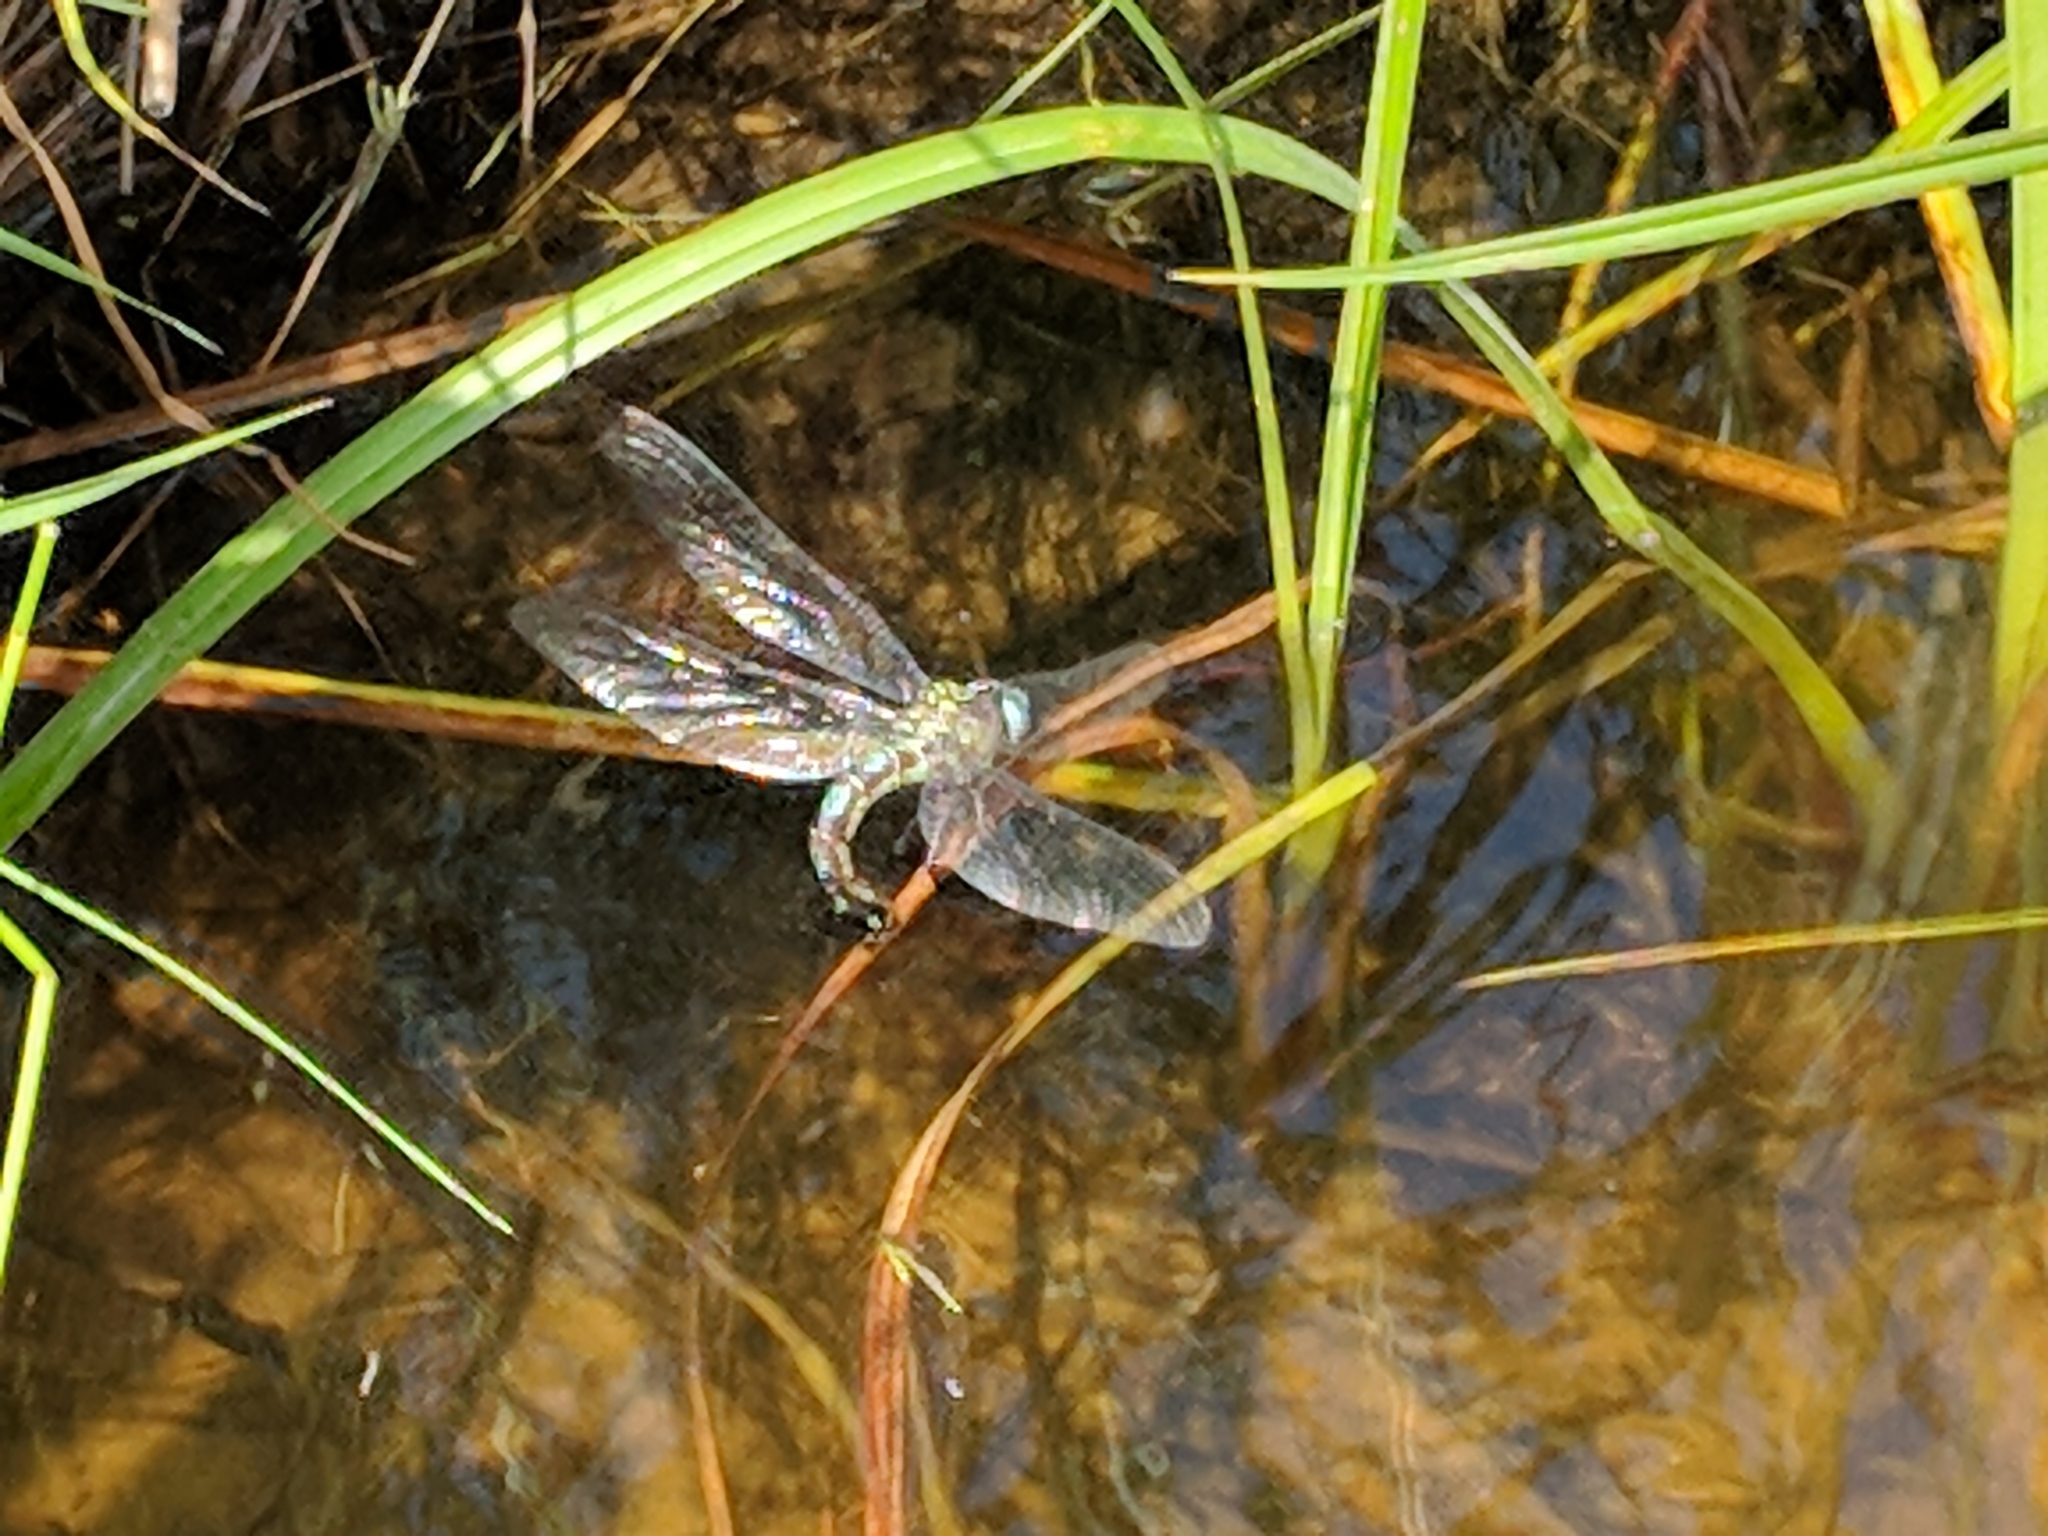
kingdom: Animalia
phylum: Arthropoda
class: Insecta
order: Odonata
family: Aeshnidae
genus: Nasiaeschna
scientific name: Nasiaeschna pentacantha
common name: Cyrano darner
